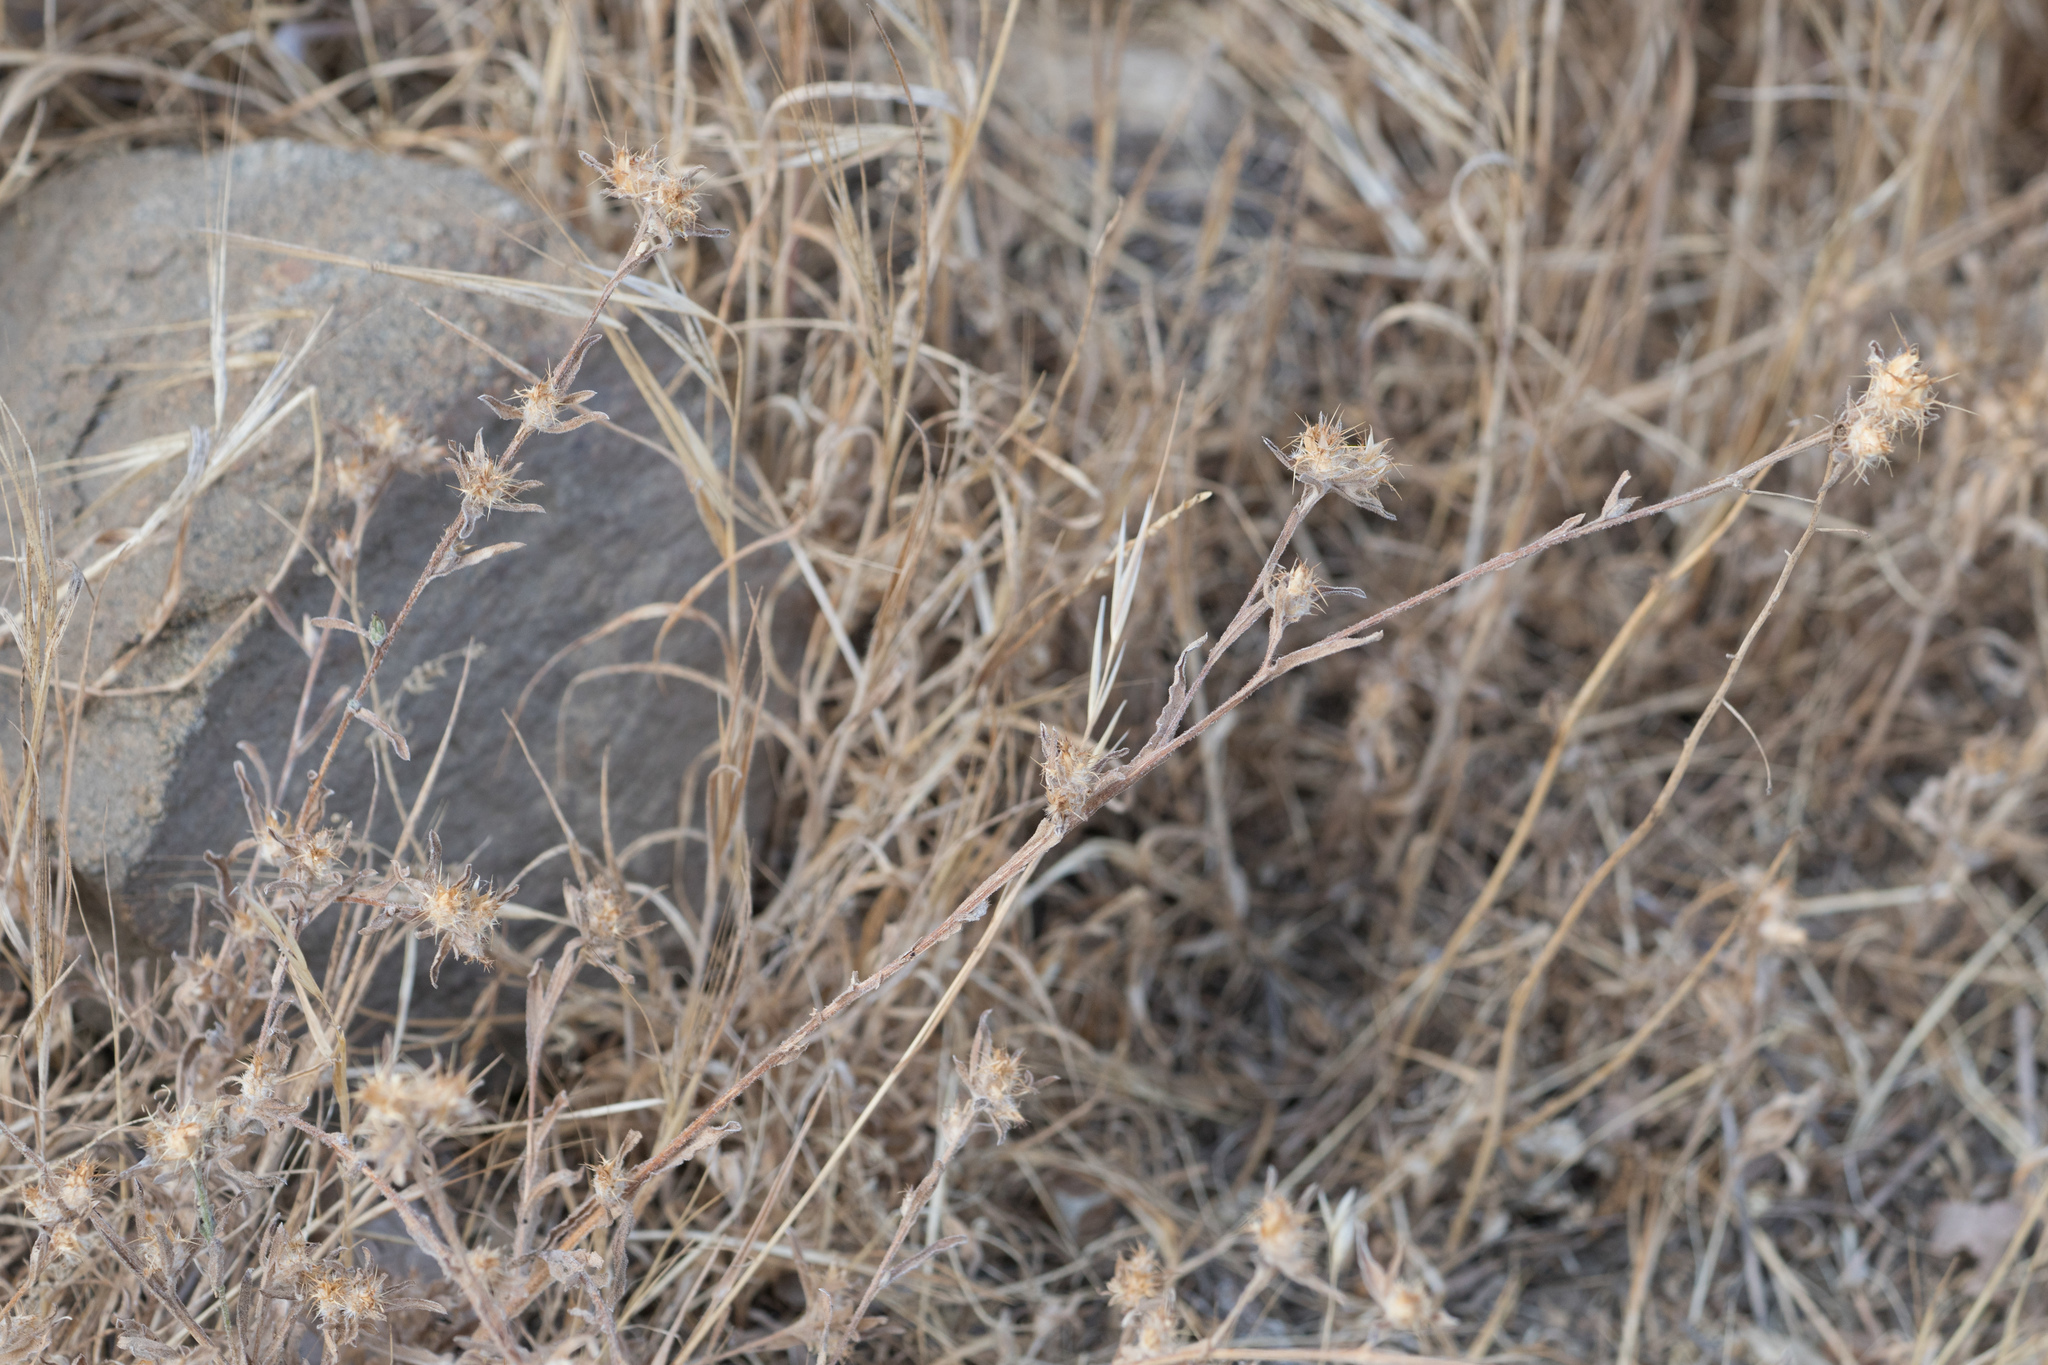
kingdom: Plantae
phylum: Tracheophyta
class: Magnoliopsida
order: Asterales
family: Asteraceae
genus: Centaurea
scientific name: Centaurea melitensis
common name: Maltese star-thistle
